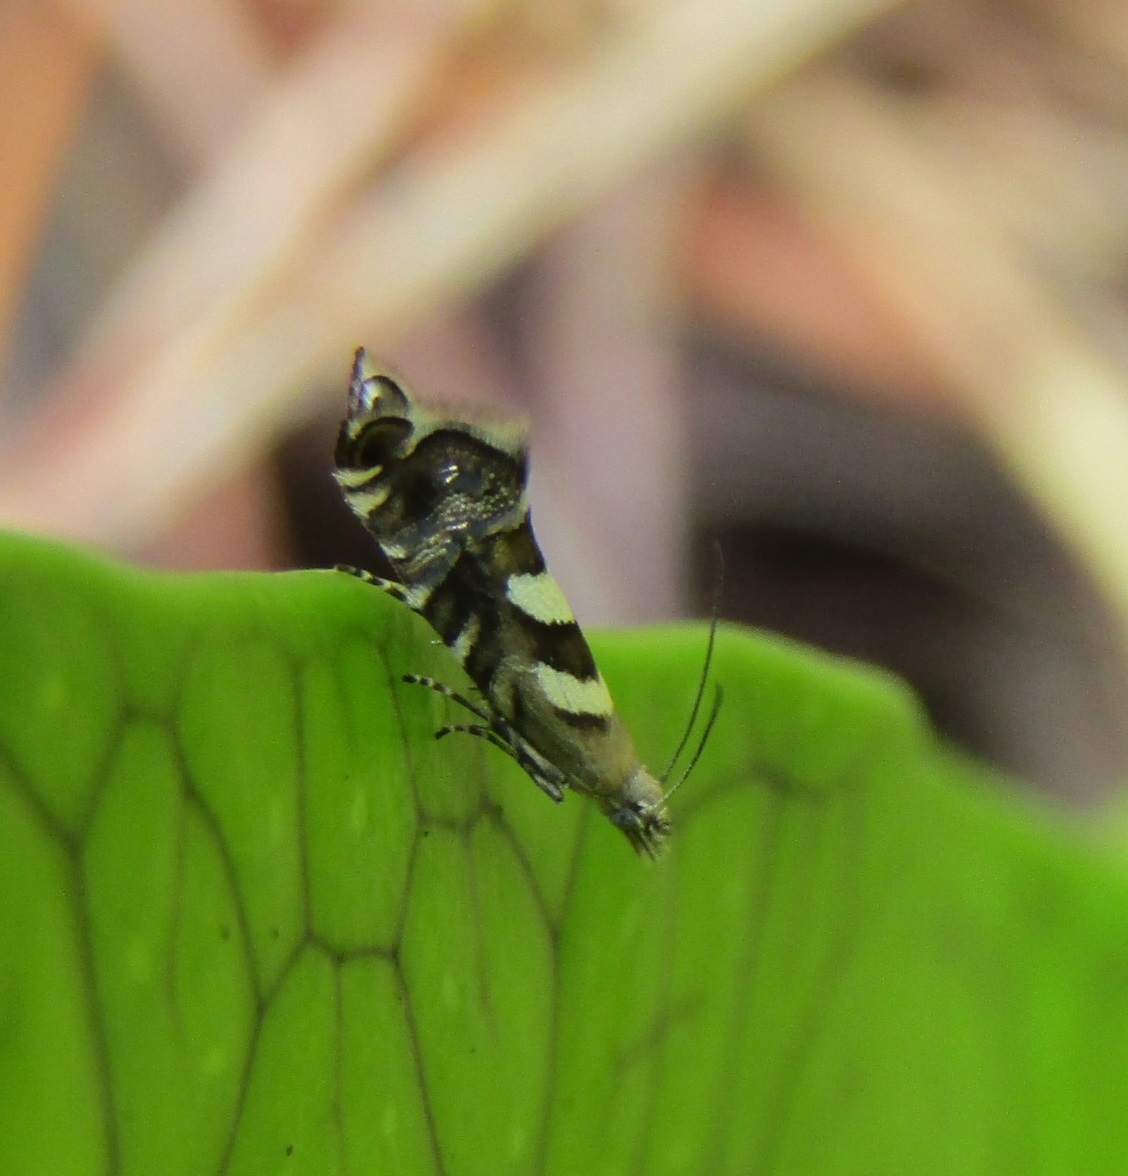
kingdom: Animalia
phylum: Arthropoda
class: Insecta
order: Lepidoptera
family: Glyphipterigidae
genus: Glyphipterix
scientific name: Glyphipterix asteronota
